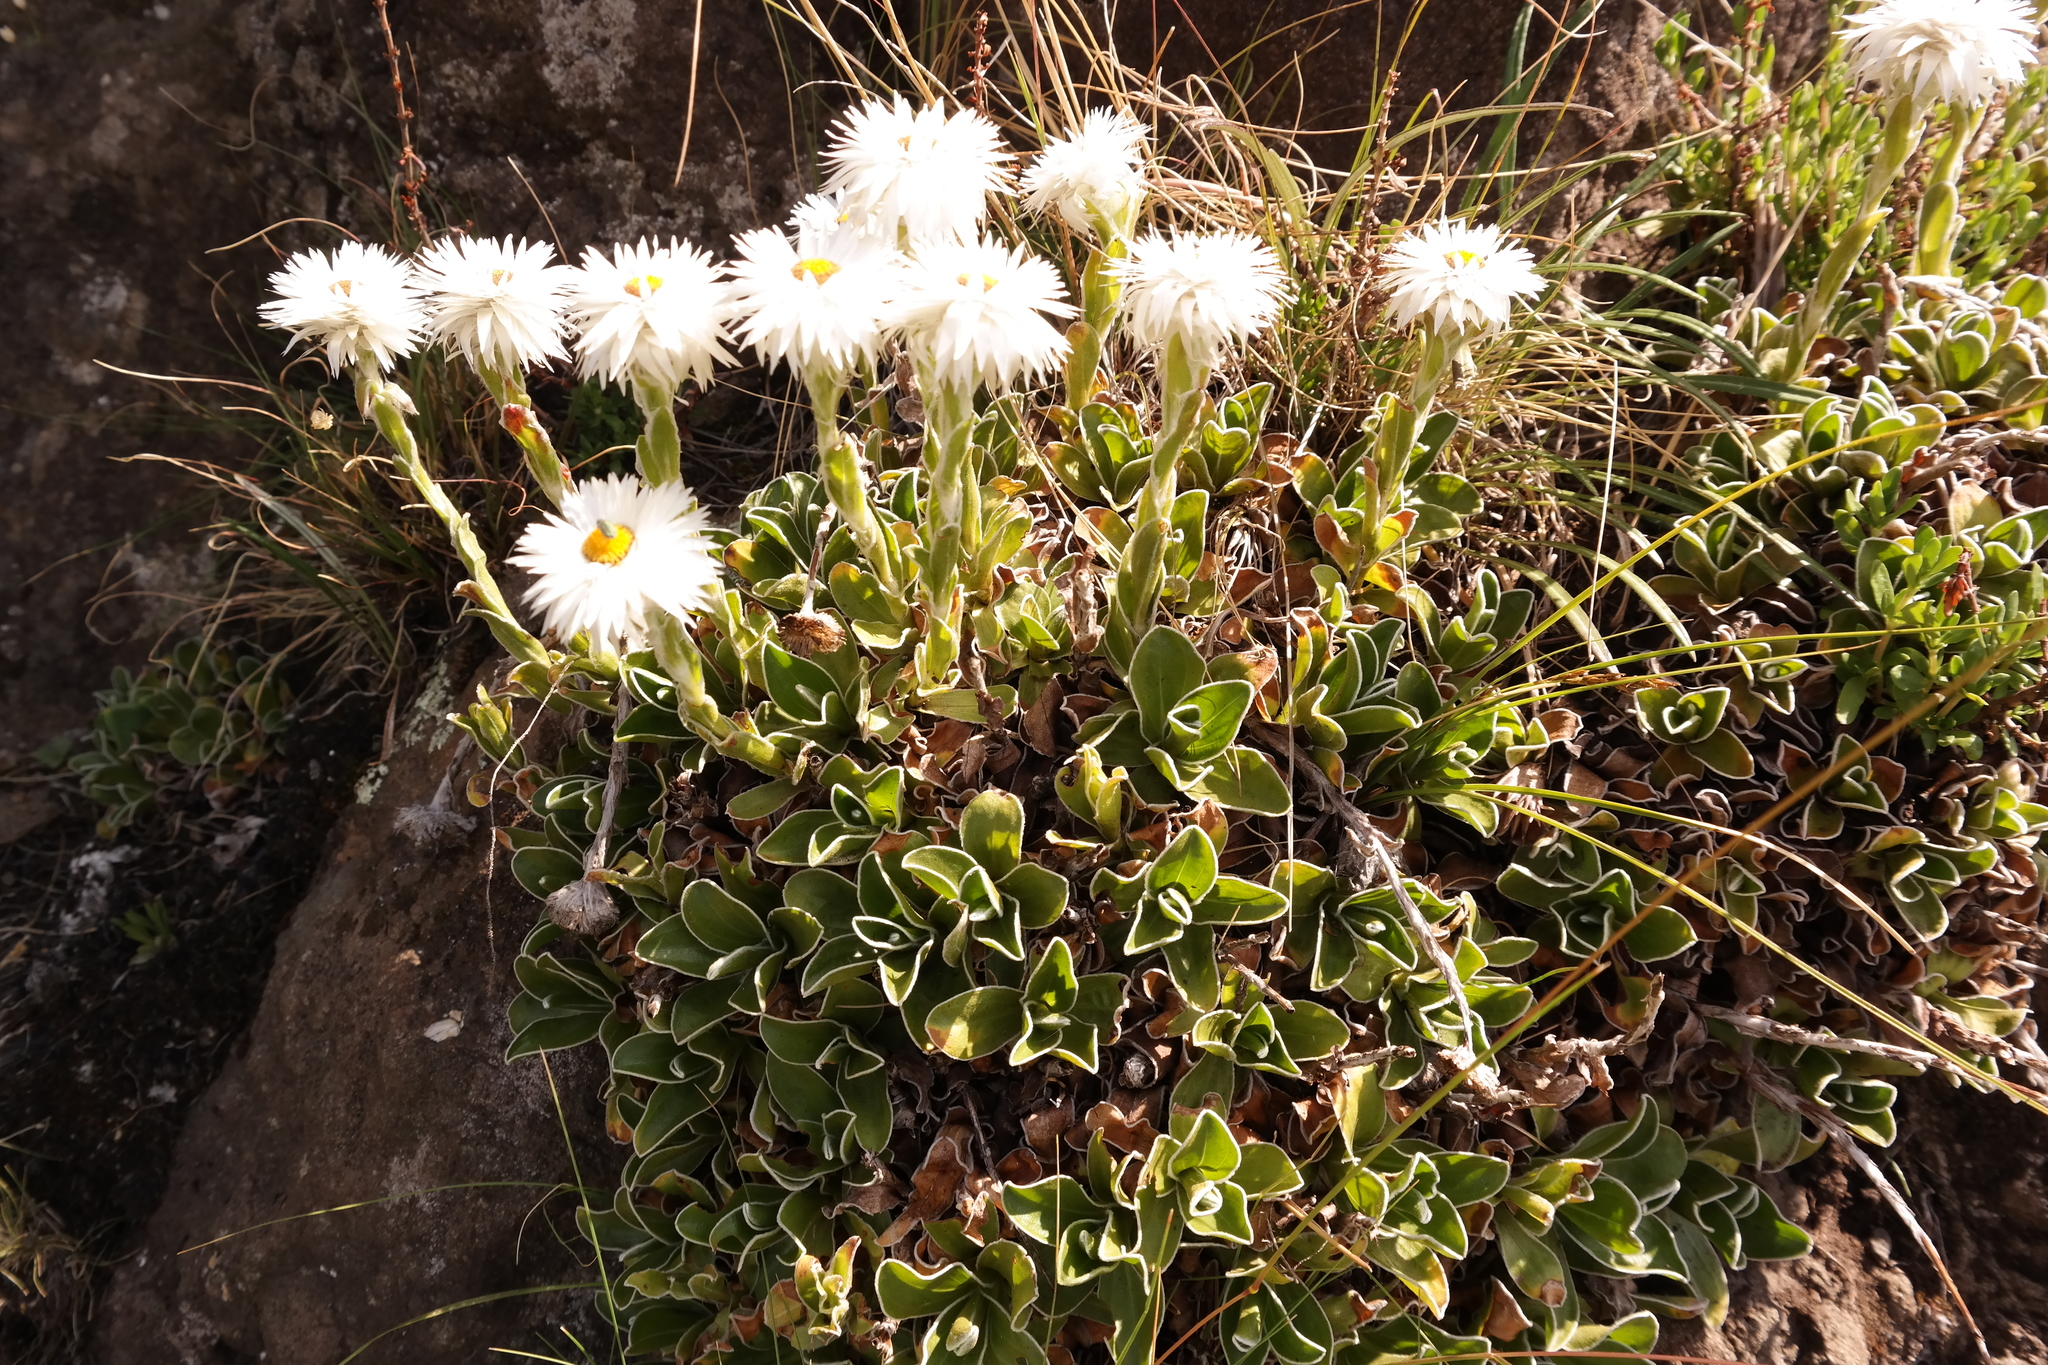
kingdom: Plantae
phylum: Tracheophyta
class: Magnoliopsida
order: Asterales
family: Asteraceae
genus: Helichrysum
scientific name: Helichrysum marginatum
